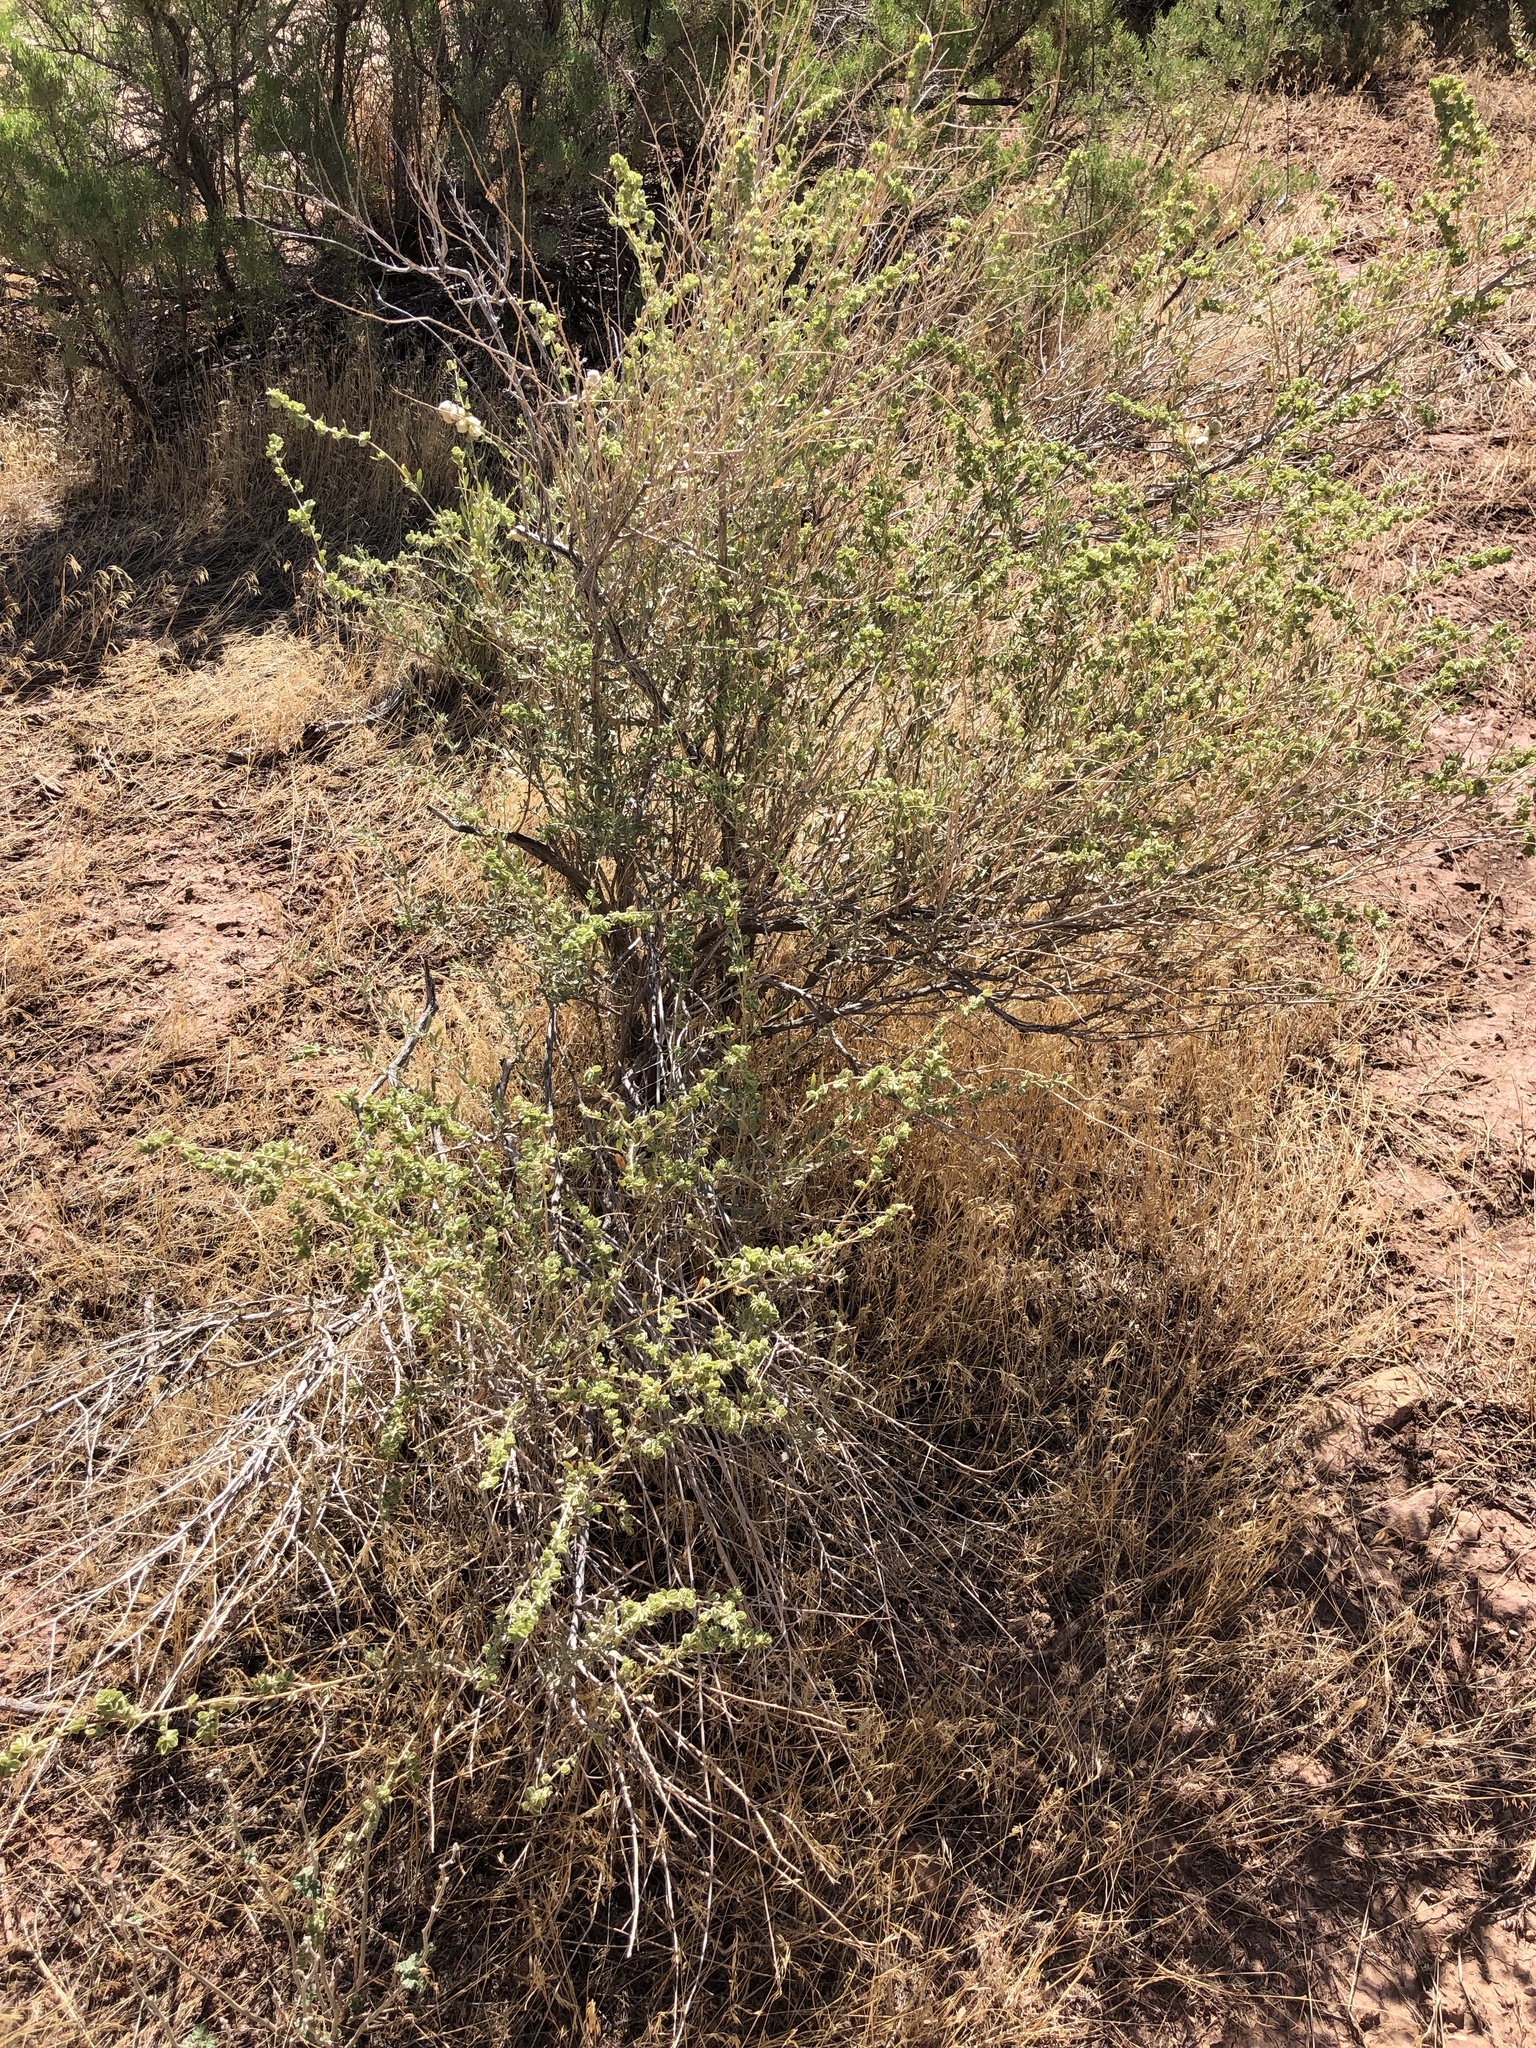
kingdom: Animalia
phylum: Arthropoda
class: Insecta
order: Diptera
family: Cecidomyiidae
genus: Asphondylia
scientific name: Asphondylia neomexicana
